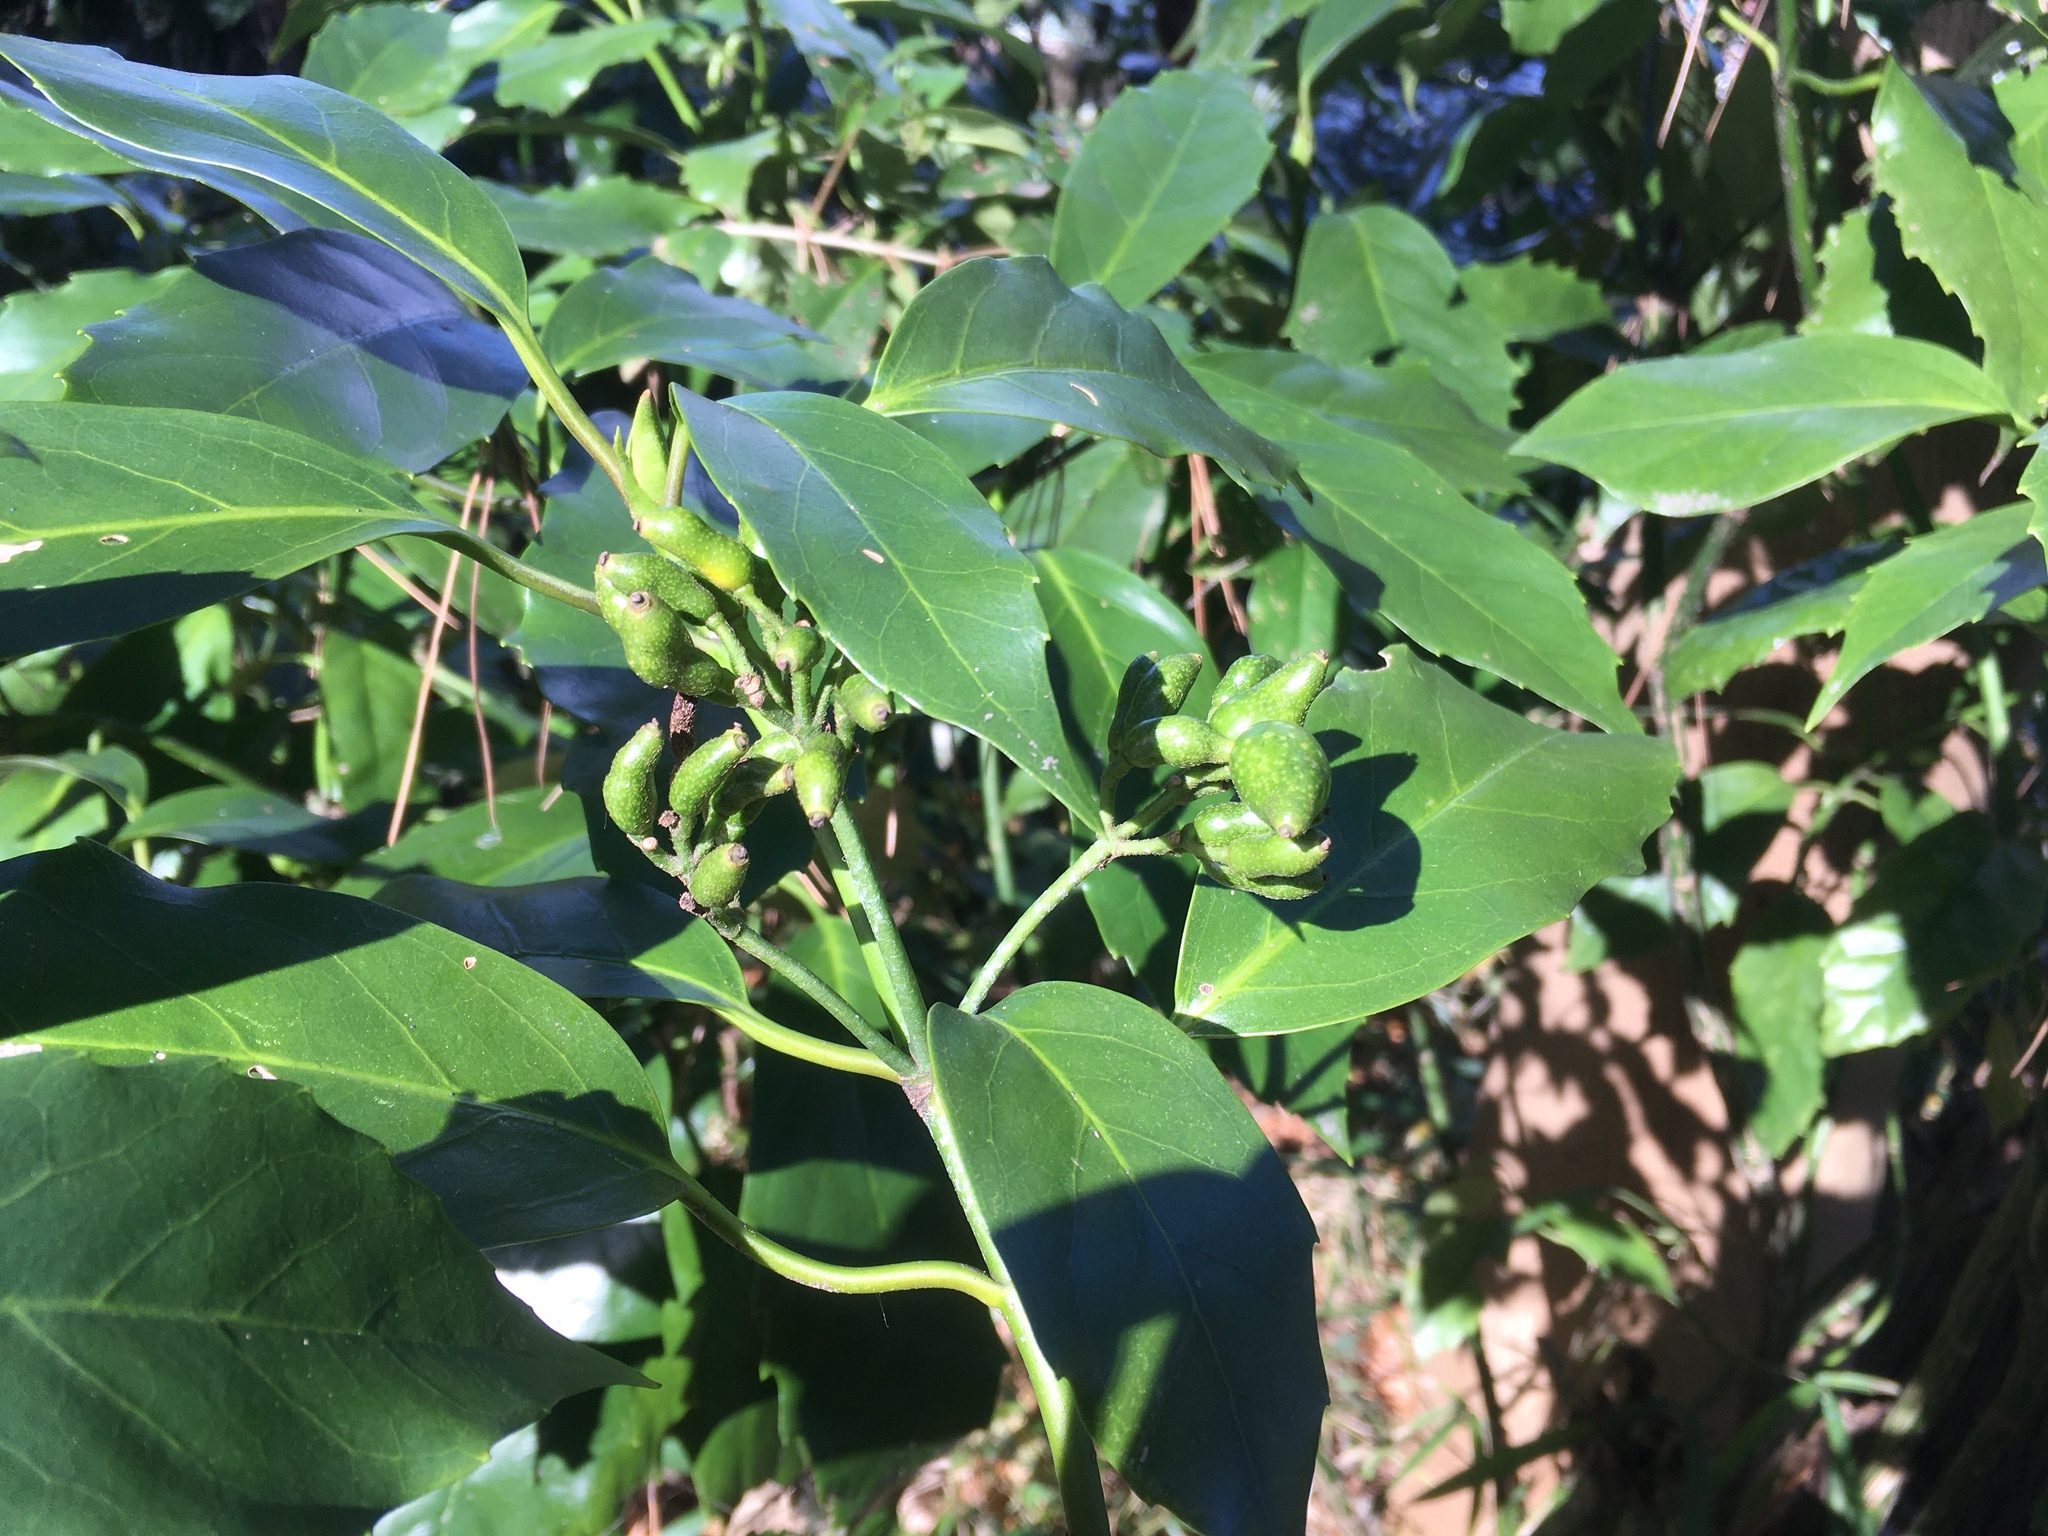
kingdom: Plantae
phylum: Tracheophyta
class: Magnoliopsida
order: Garryales
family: Garryaceae
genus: Aucuba
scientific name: Aucuba japonica
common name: Spotted-laurel
